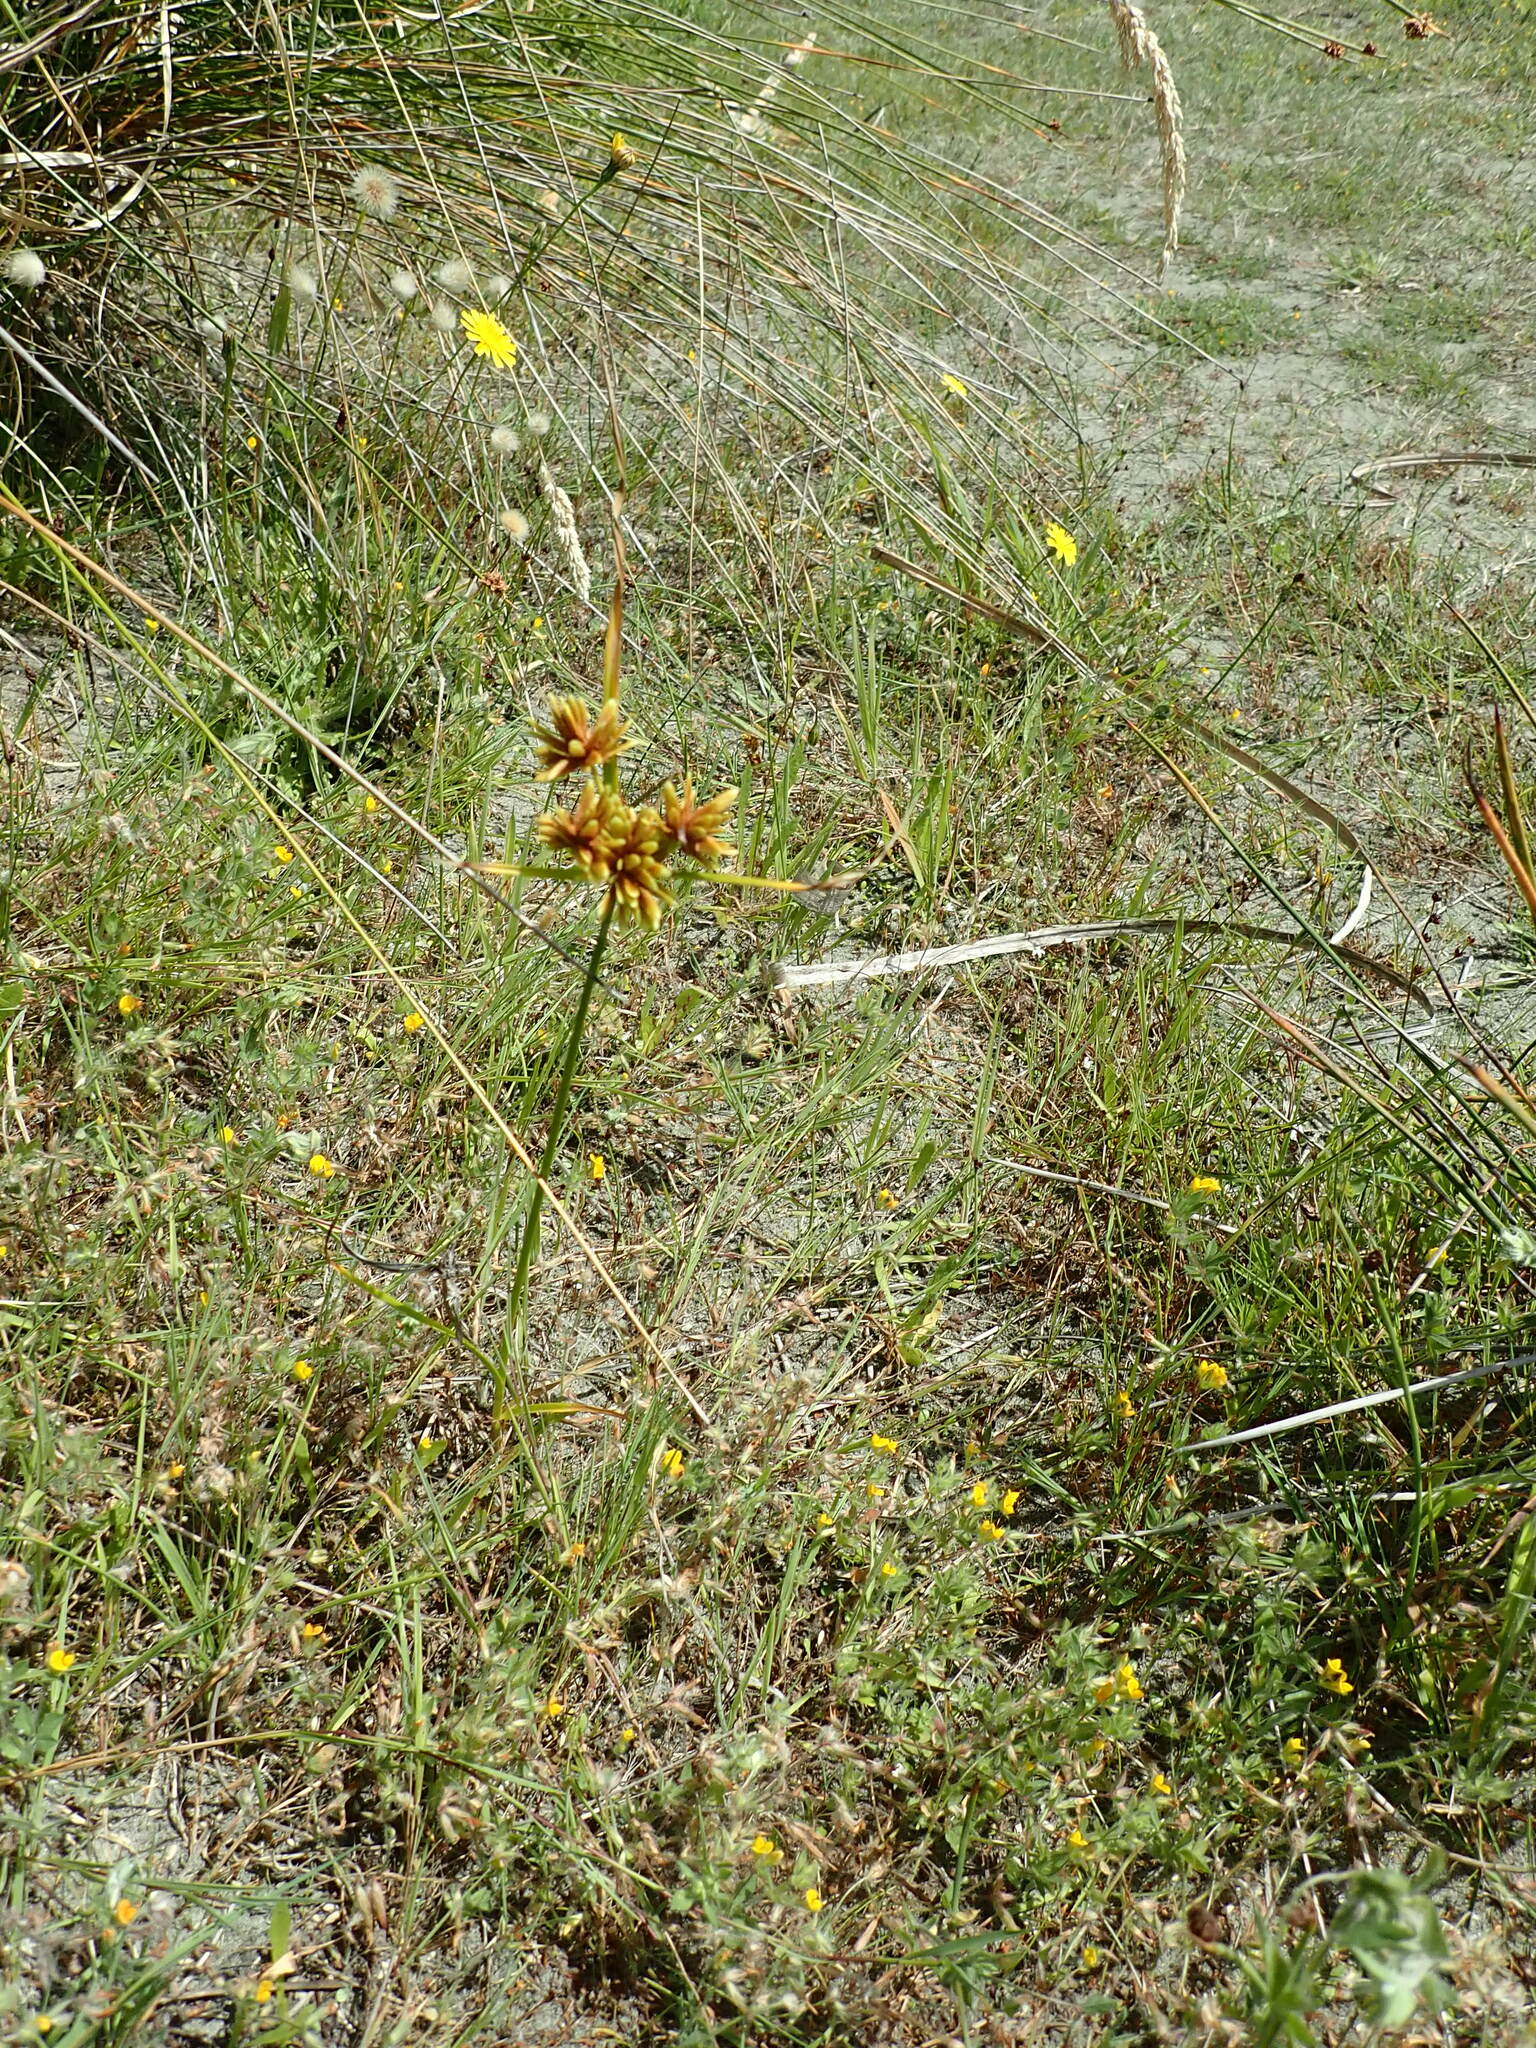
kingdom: Plantae
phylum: Tracheophyta
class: Liliopsida
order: Poales
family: Cyperaceae
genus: Cyperus
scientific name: Cyperus eragrostis
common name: Tall flatsedge
